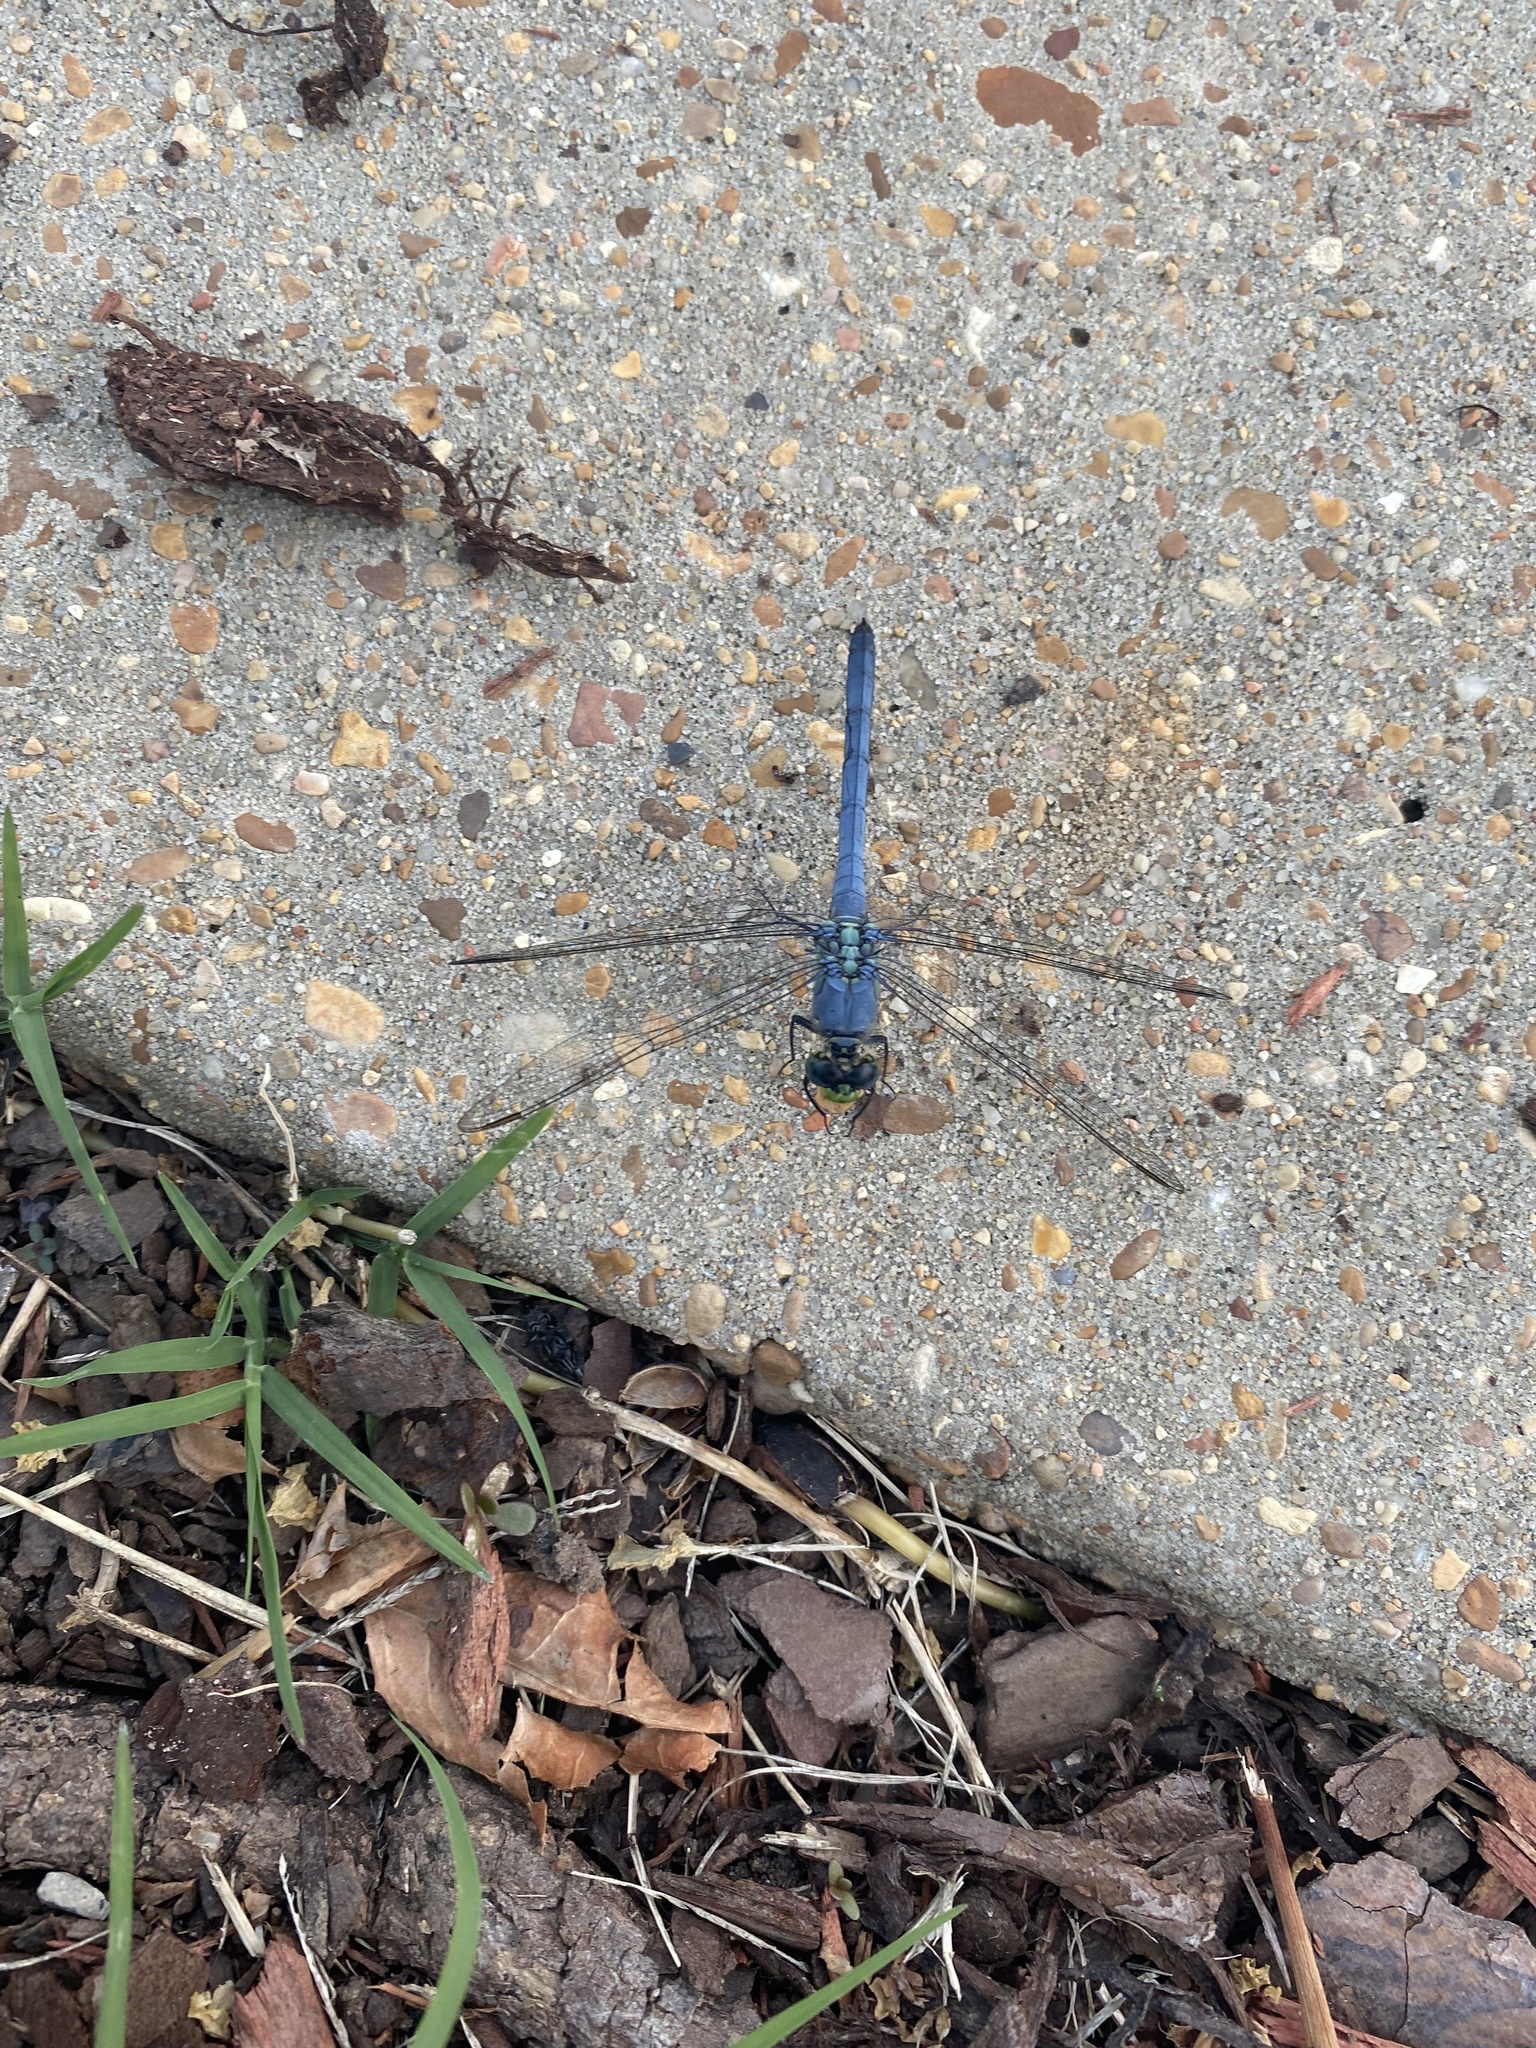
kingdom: Animalia
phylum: Arthropoda
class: Insecta
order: Odonata
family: Libellulidae
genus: Erythemis
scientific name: Erythemis simplicicollis
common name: Eastern pondhawk
